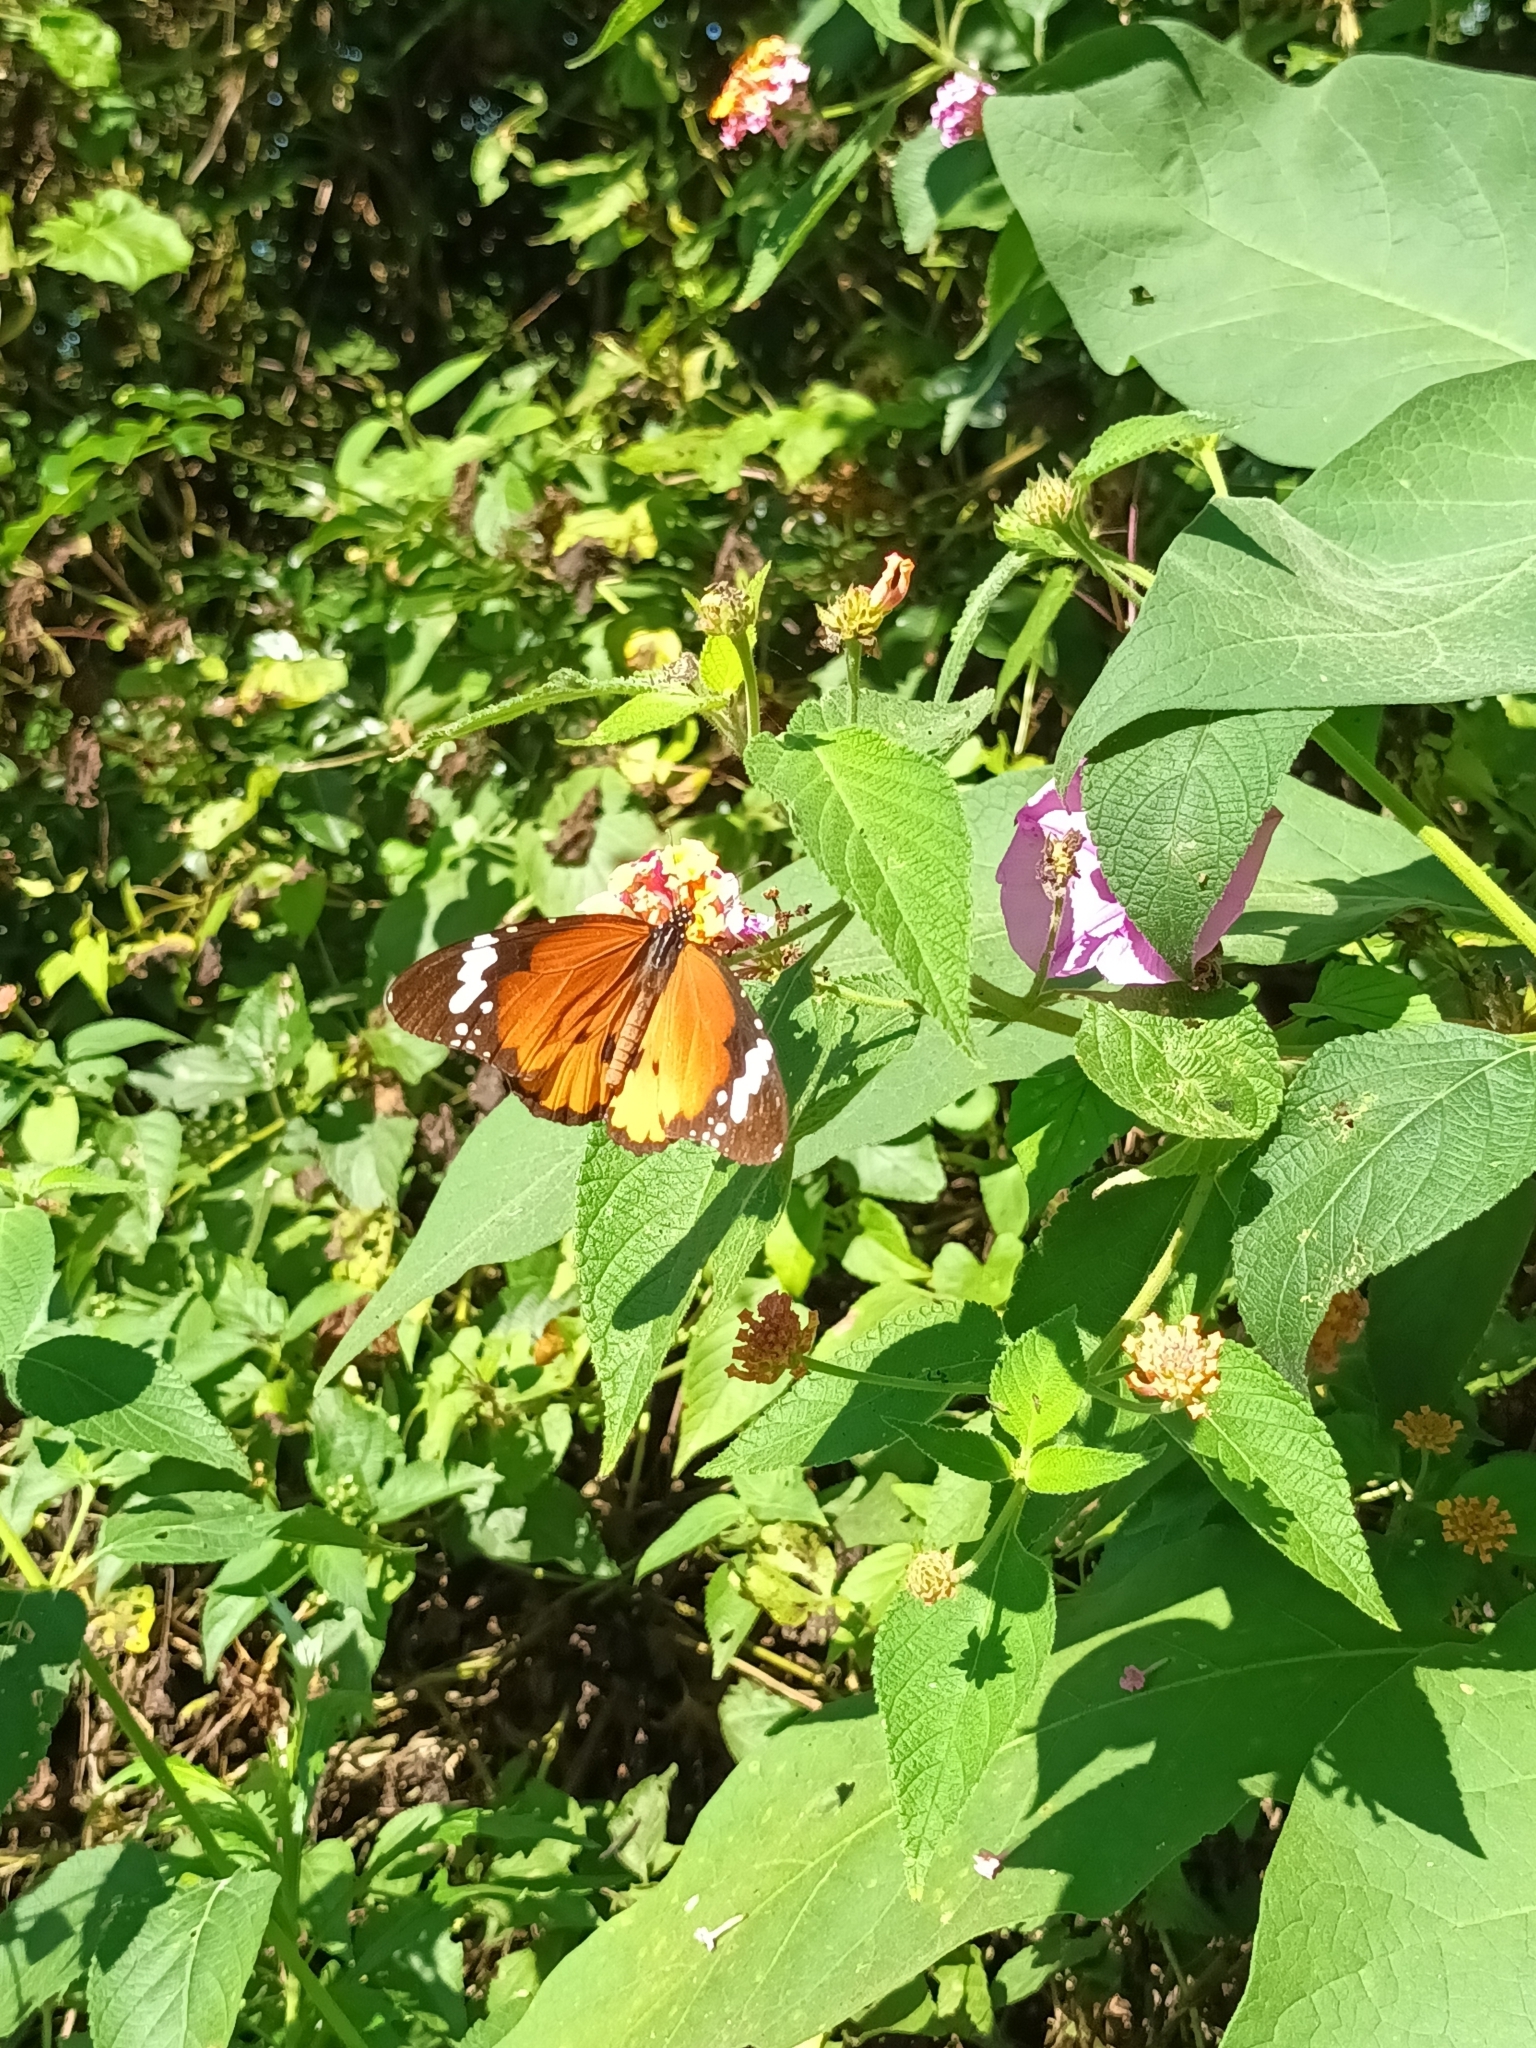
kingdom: Animalia
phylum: Arthropoda
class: Insecta
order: Lepidoptera
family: Nymphalidae
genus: Danaus
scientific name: Danaus chrysippus
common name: Plain tiger
